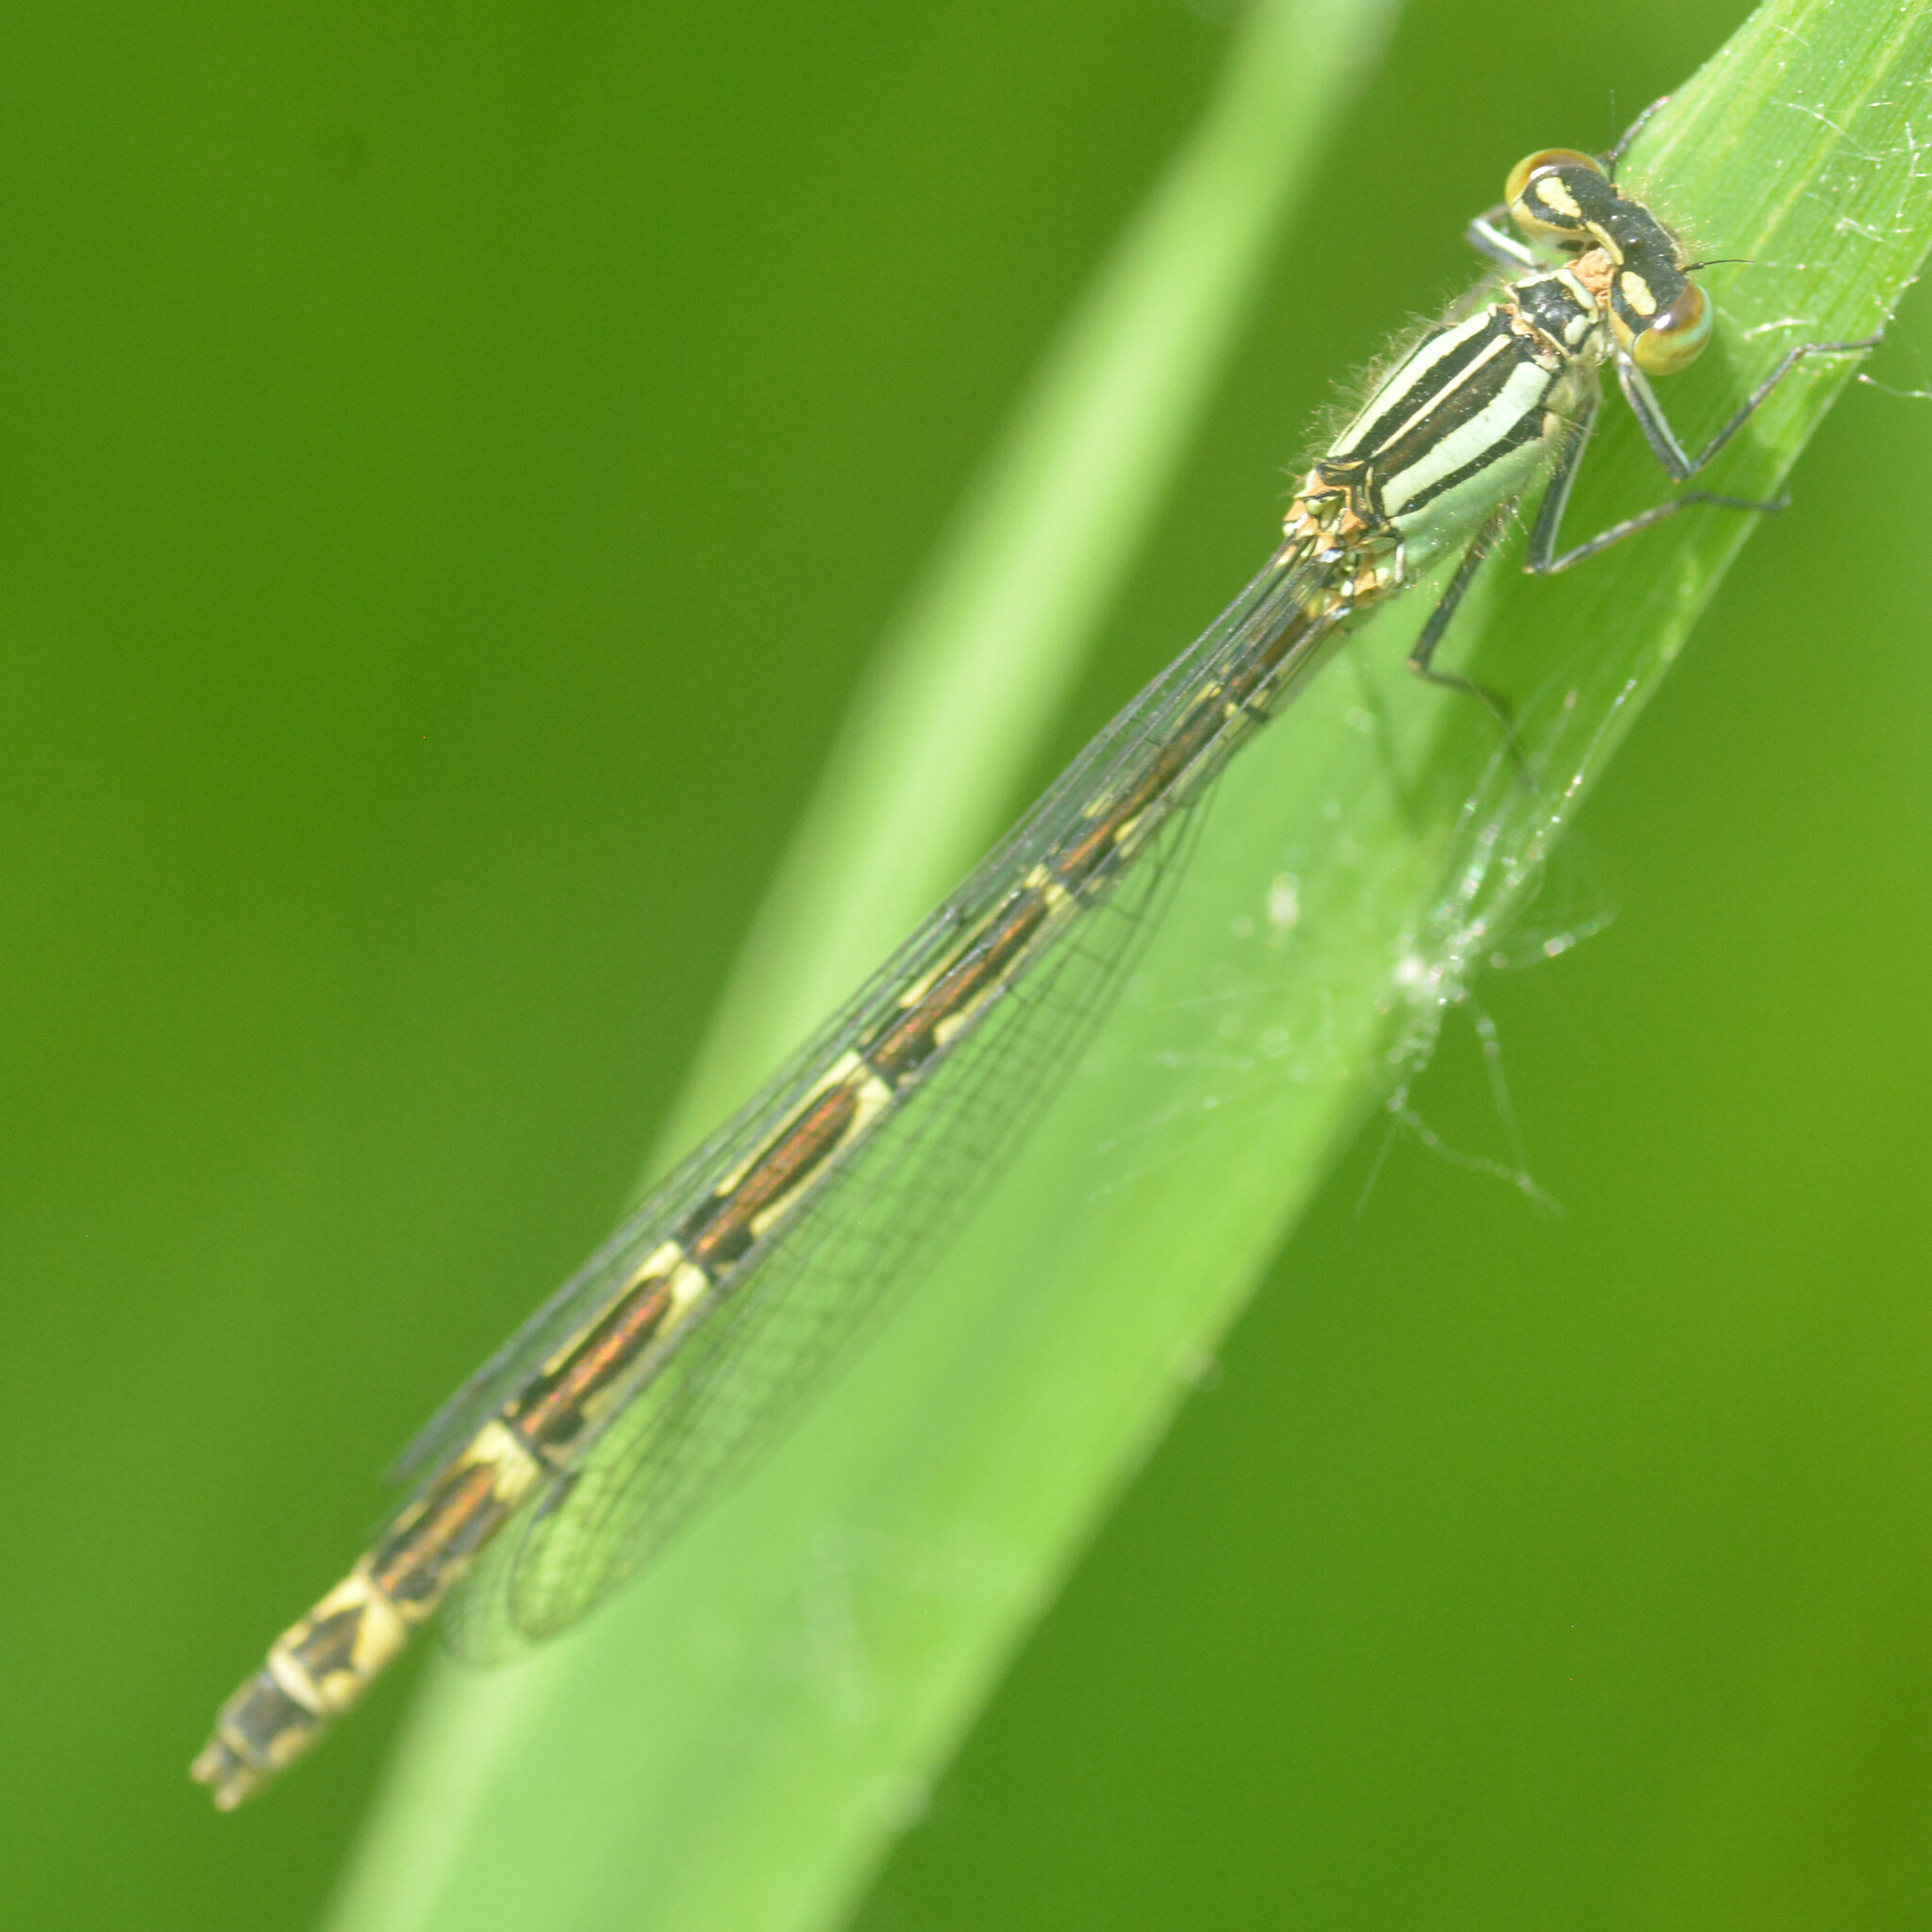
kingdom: Animalia
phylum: Arthropoda
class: Insecta
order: Odonata
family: Coenagrionidae
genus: Enallagma
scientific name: Enallagma cyathigerum
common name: Common blue damselfly
